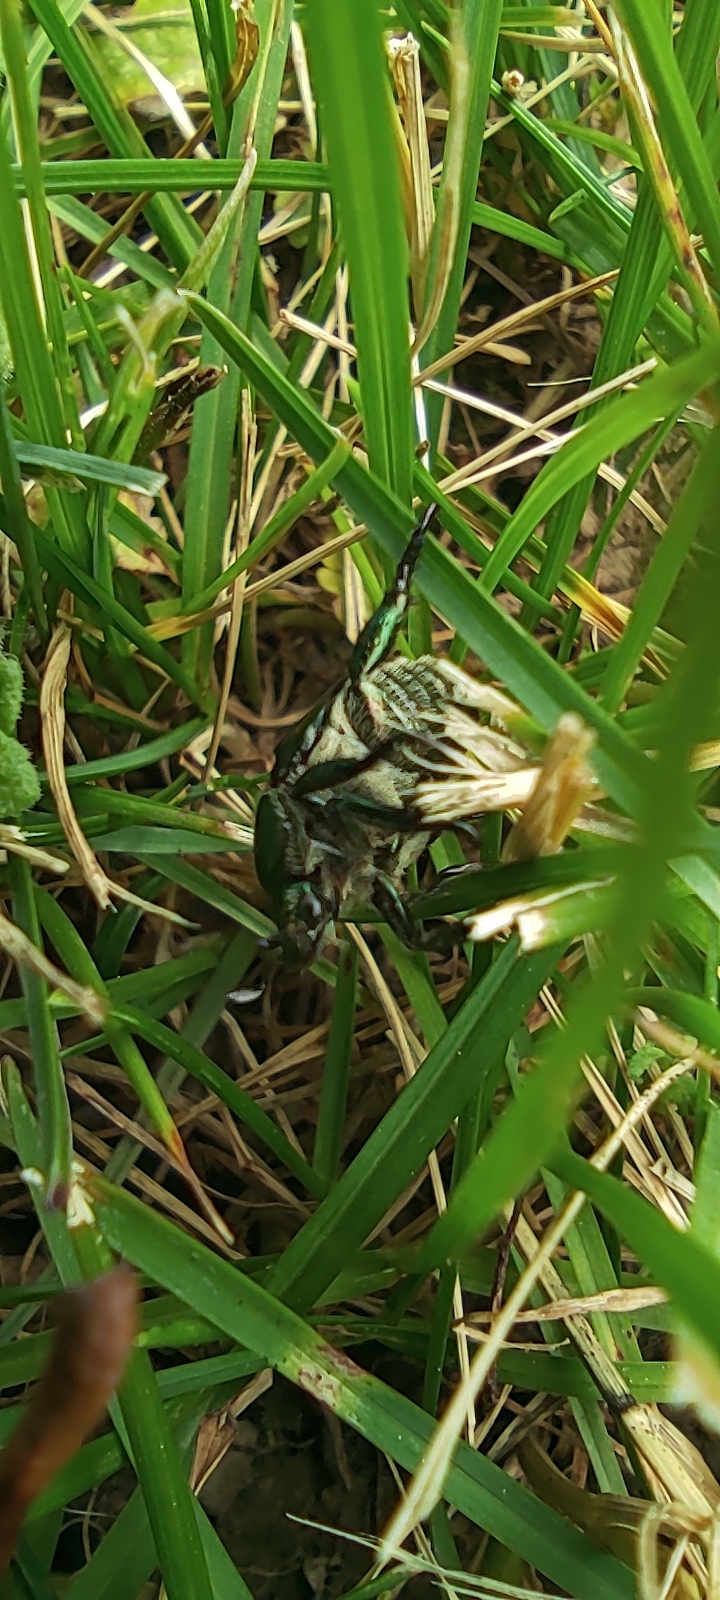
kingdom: Animalia
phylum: Arthropoda
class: Insecta
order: Coleoptera
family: Scarabaeidae
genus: Popillia
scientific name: Popillia japonica
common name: Japanese beetle
